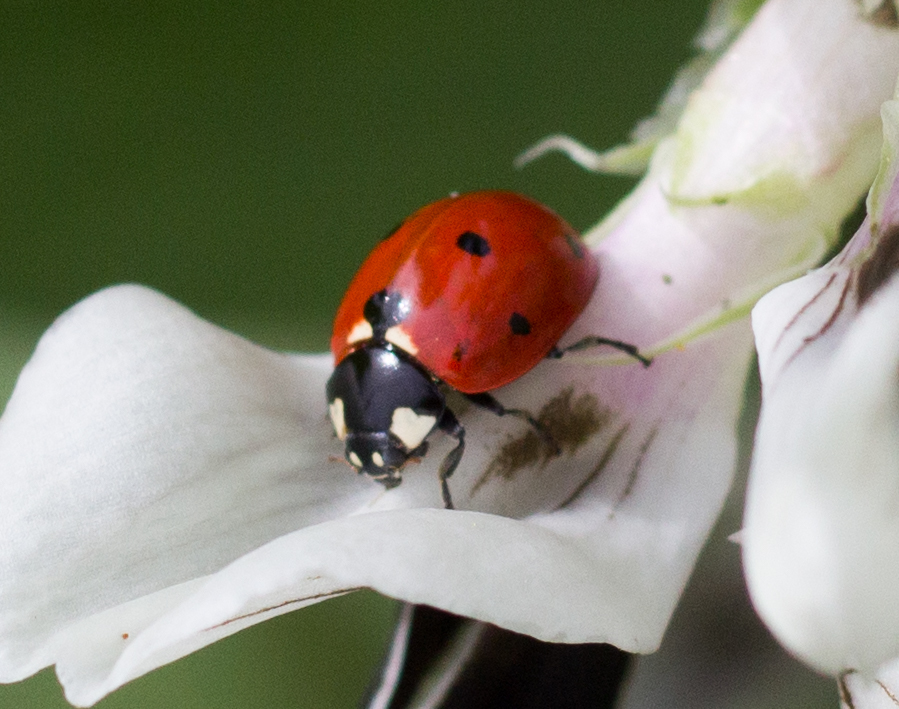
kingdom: Animalia
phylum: Arthropoda
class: Insecta
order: Coleoptera
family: Coccinellidae
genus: Coccinella
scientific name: Coccinella septempunctata
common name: Sevenspotted lady beetle
